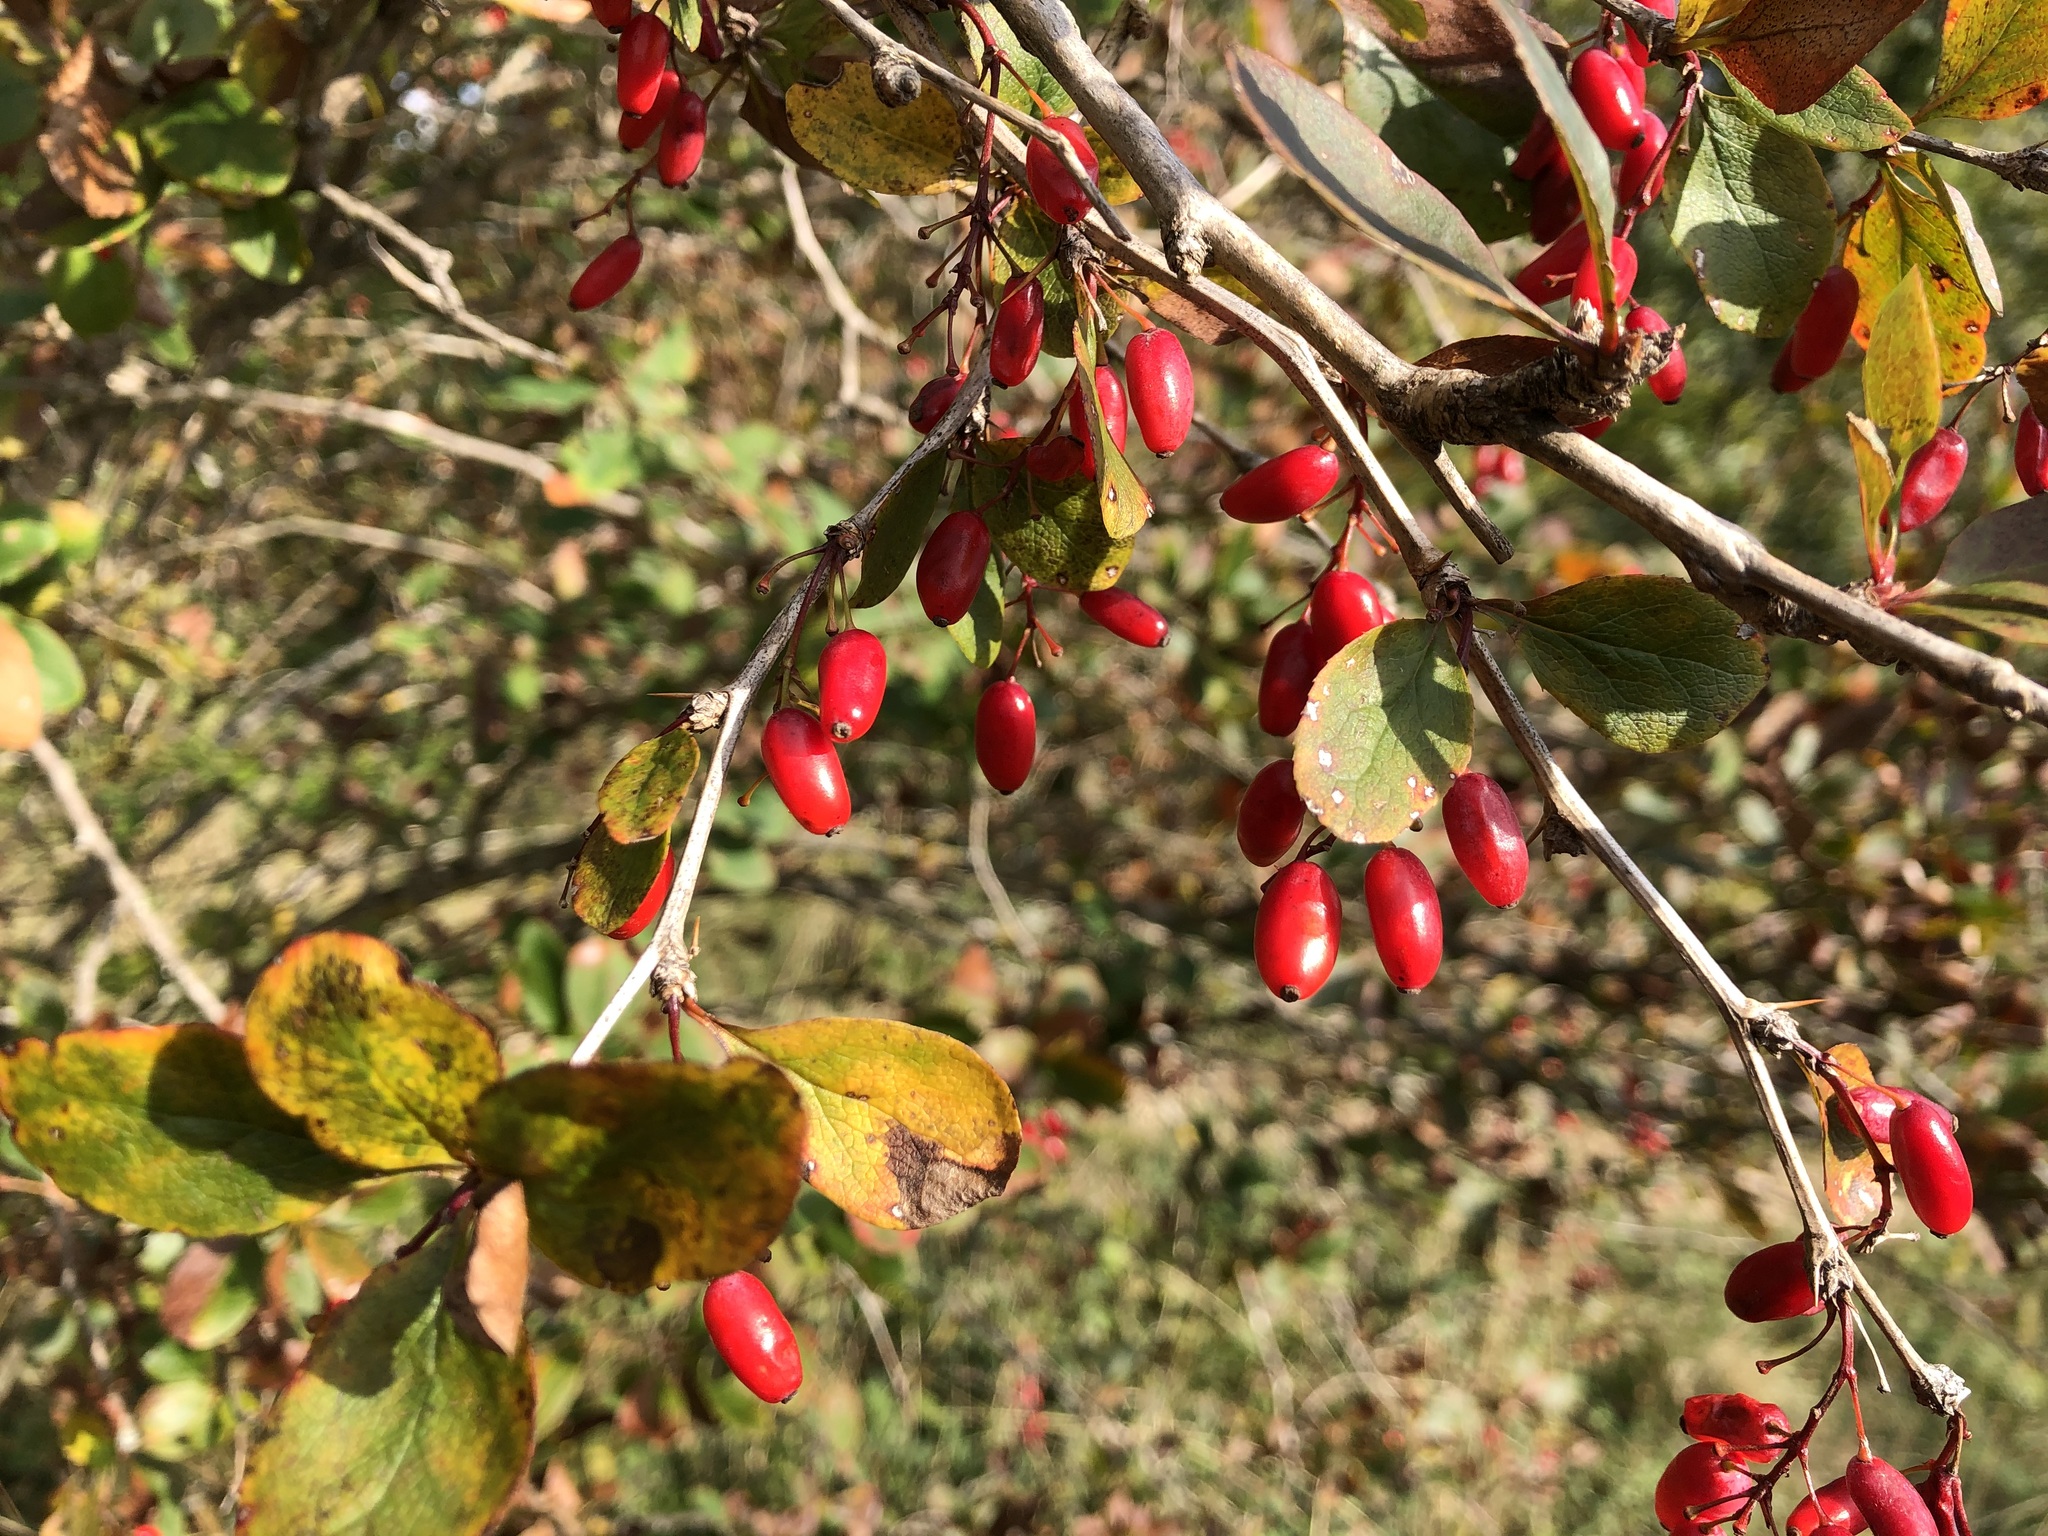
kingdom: Plantae
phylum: Tracheophyta
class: Magnoliopsida
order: Ranunculales
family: Berberidaceae
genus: Berberis
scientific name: Berberis vulgaris
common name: Barberry
